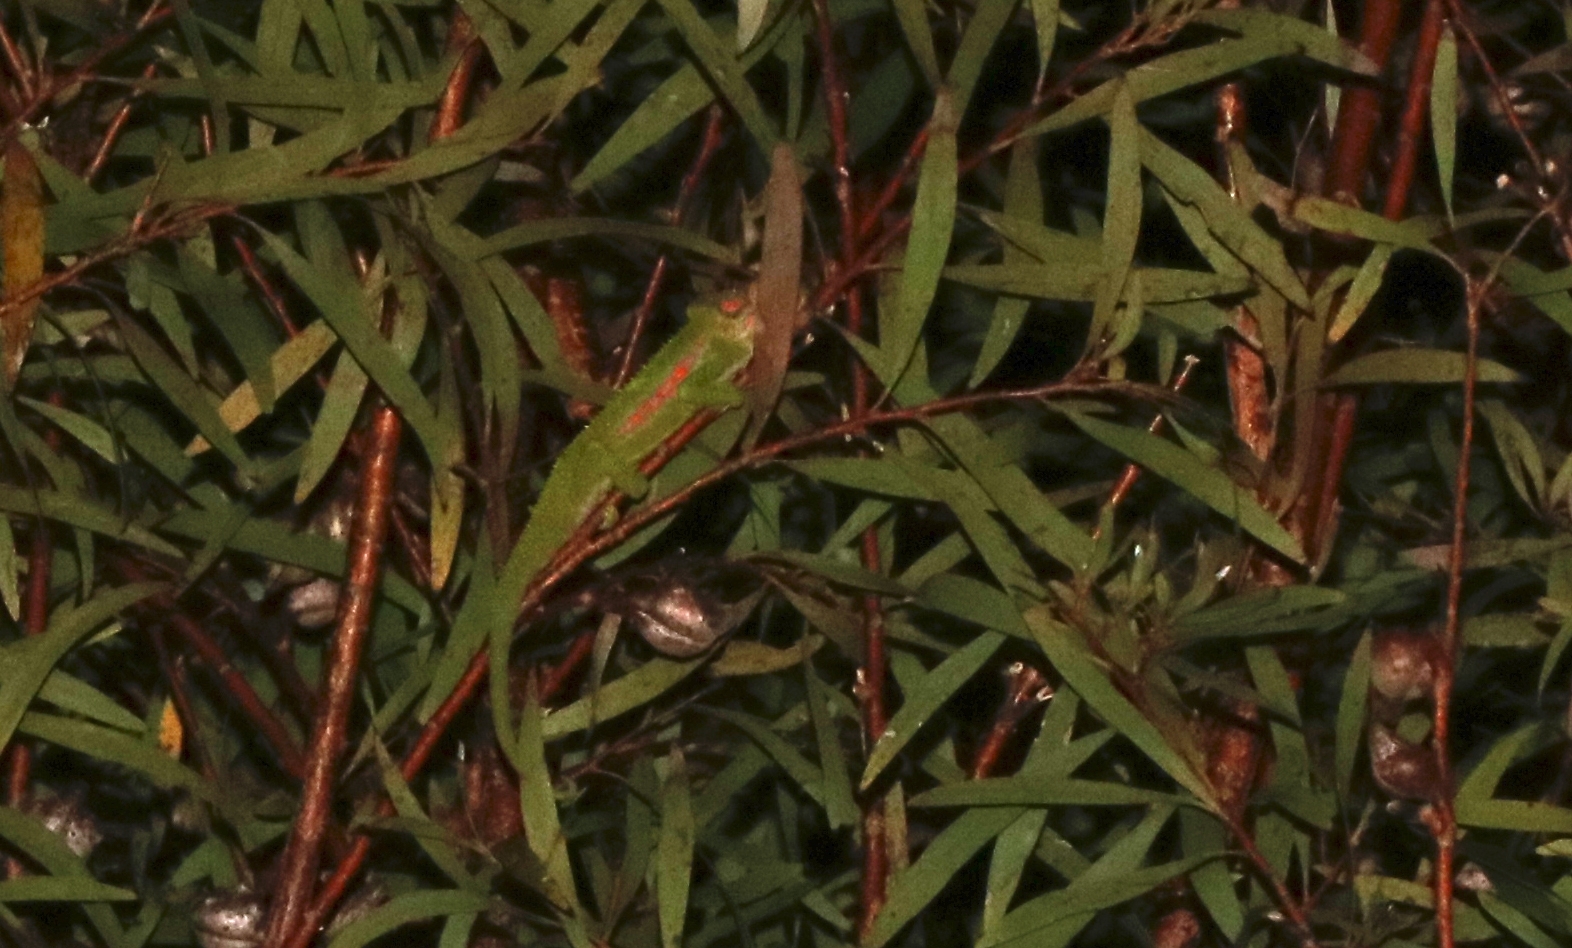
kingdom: Animalia
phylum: Chordata
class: Squamata
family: Chamaeleonidae
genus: Bradypodion
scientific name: Bradypodion pumilum
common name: Cape dwarf chameleon
